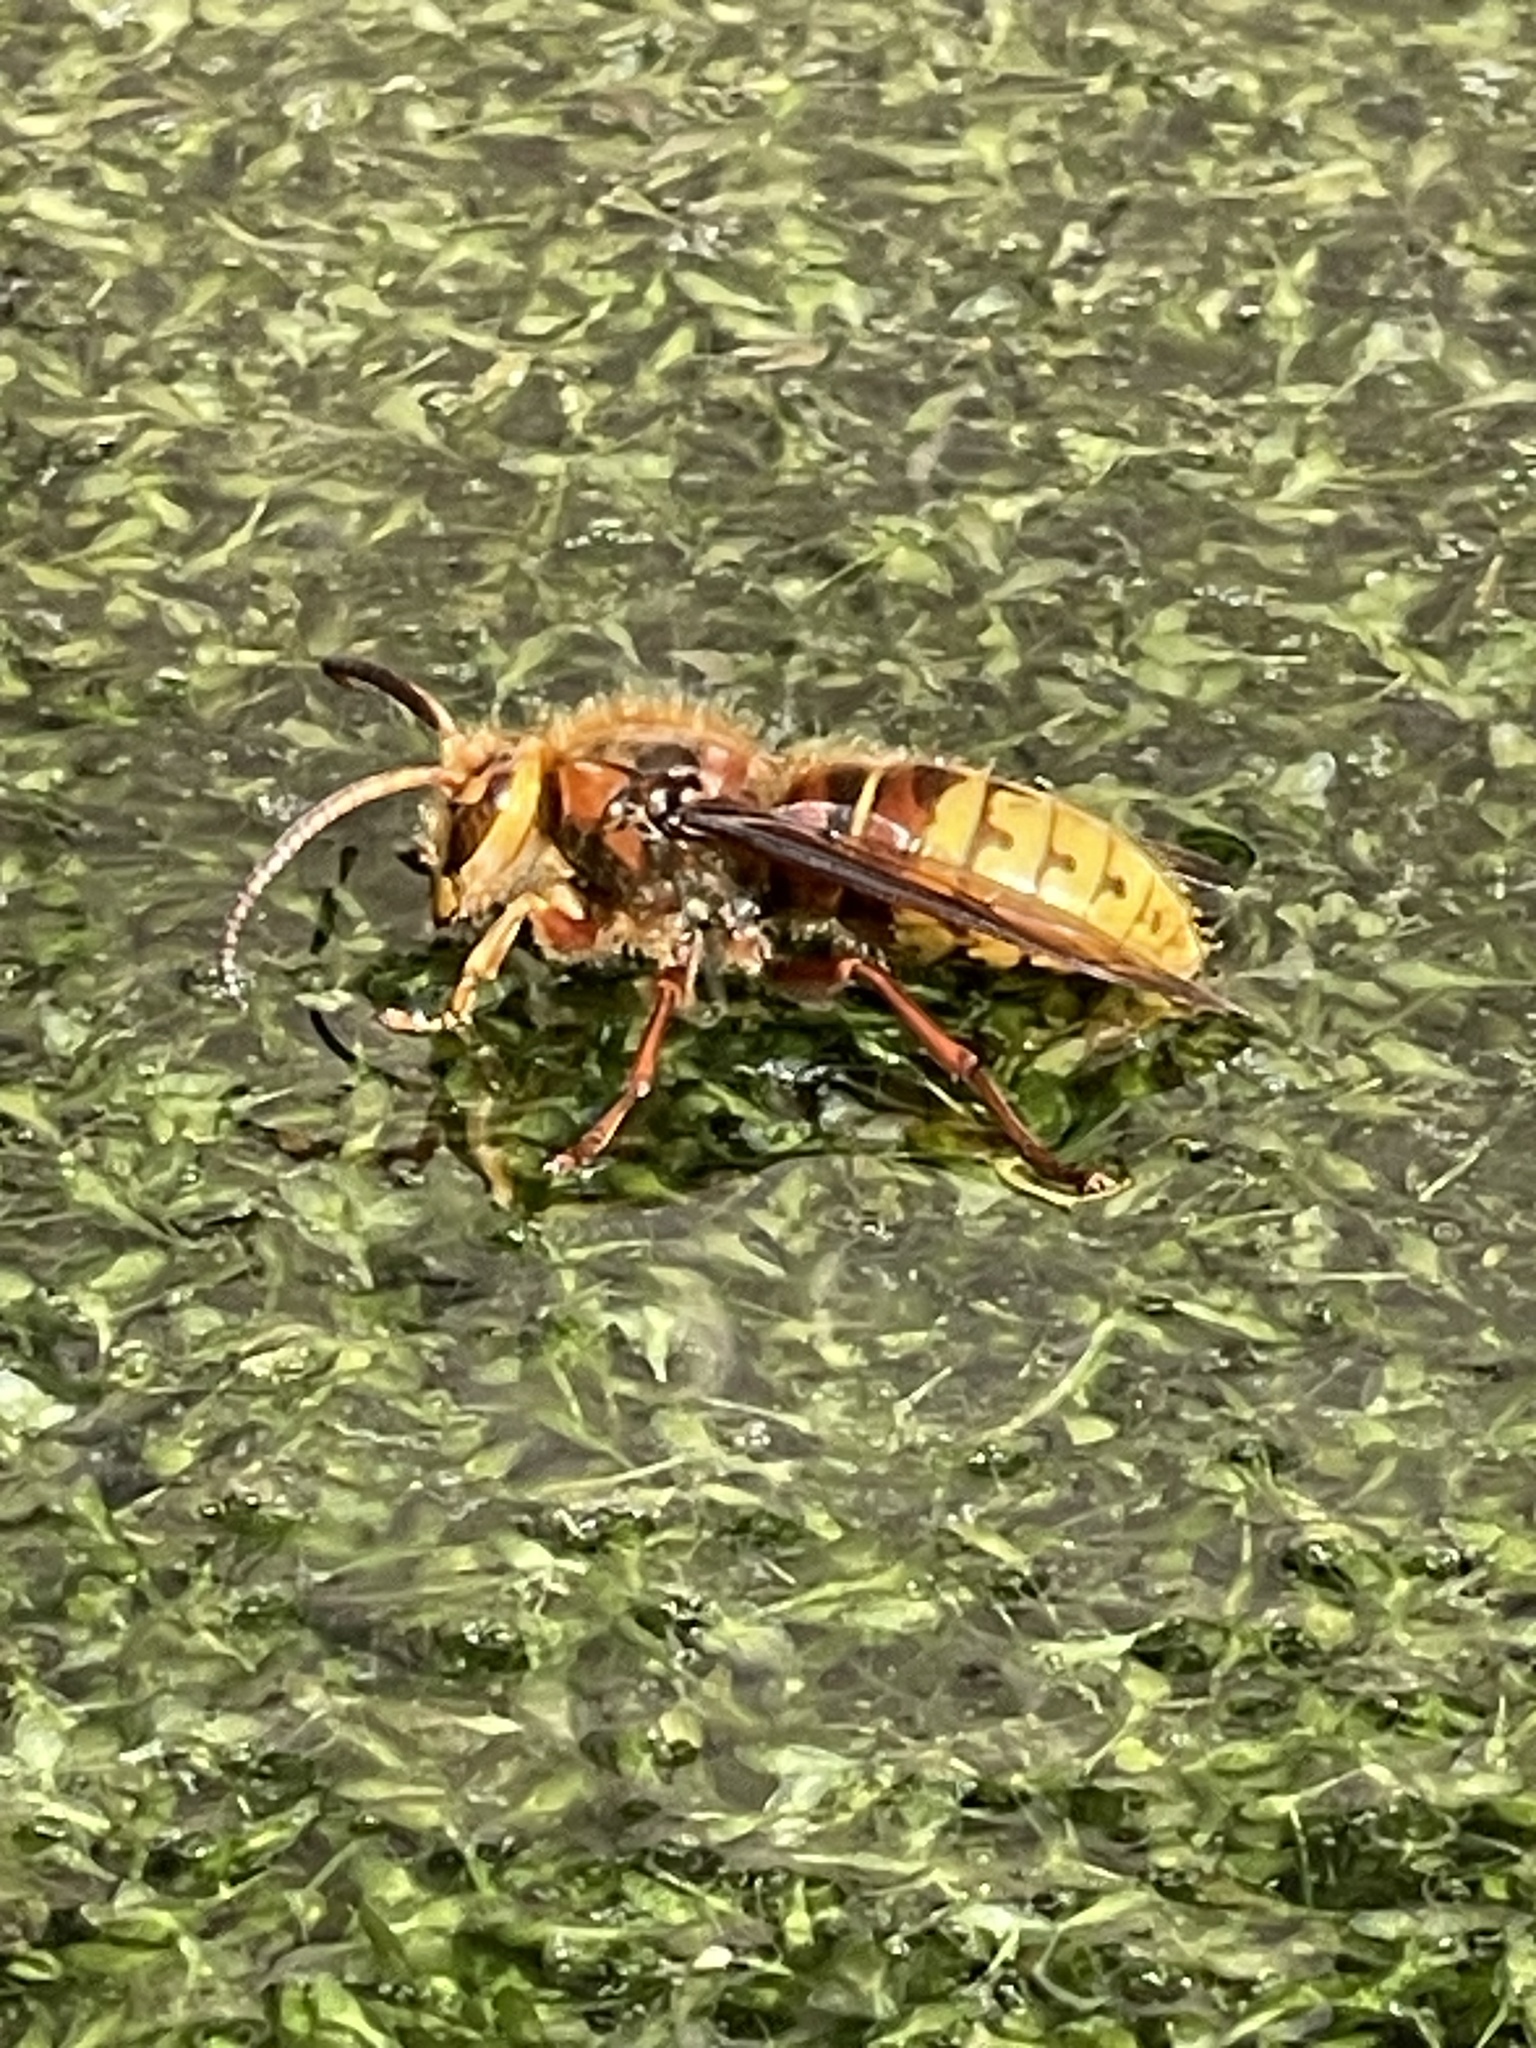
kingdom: Animalia
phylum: Arthropoda
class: Insecta
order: Hymenoptera
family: Vespidae
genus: Vespa
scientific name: Vespa crabro
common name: Hornet
